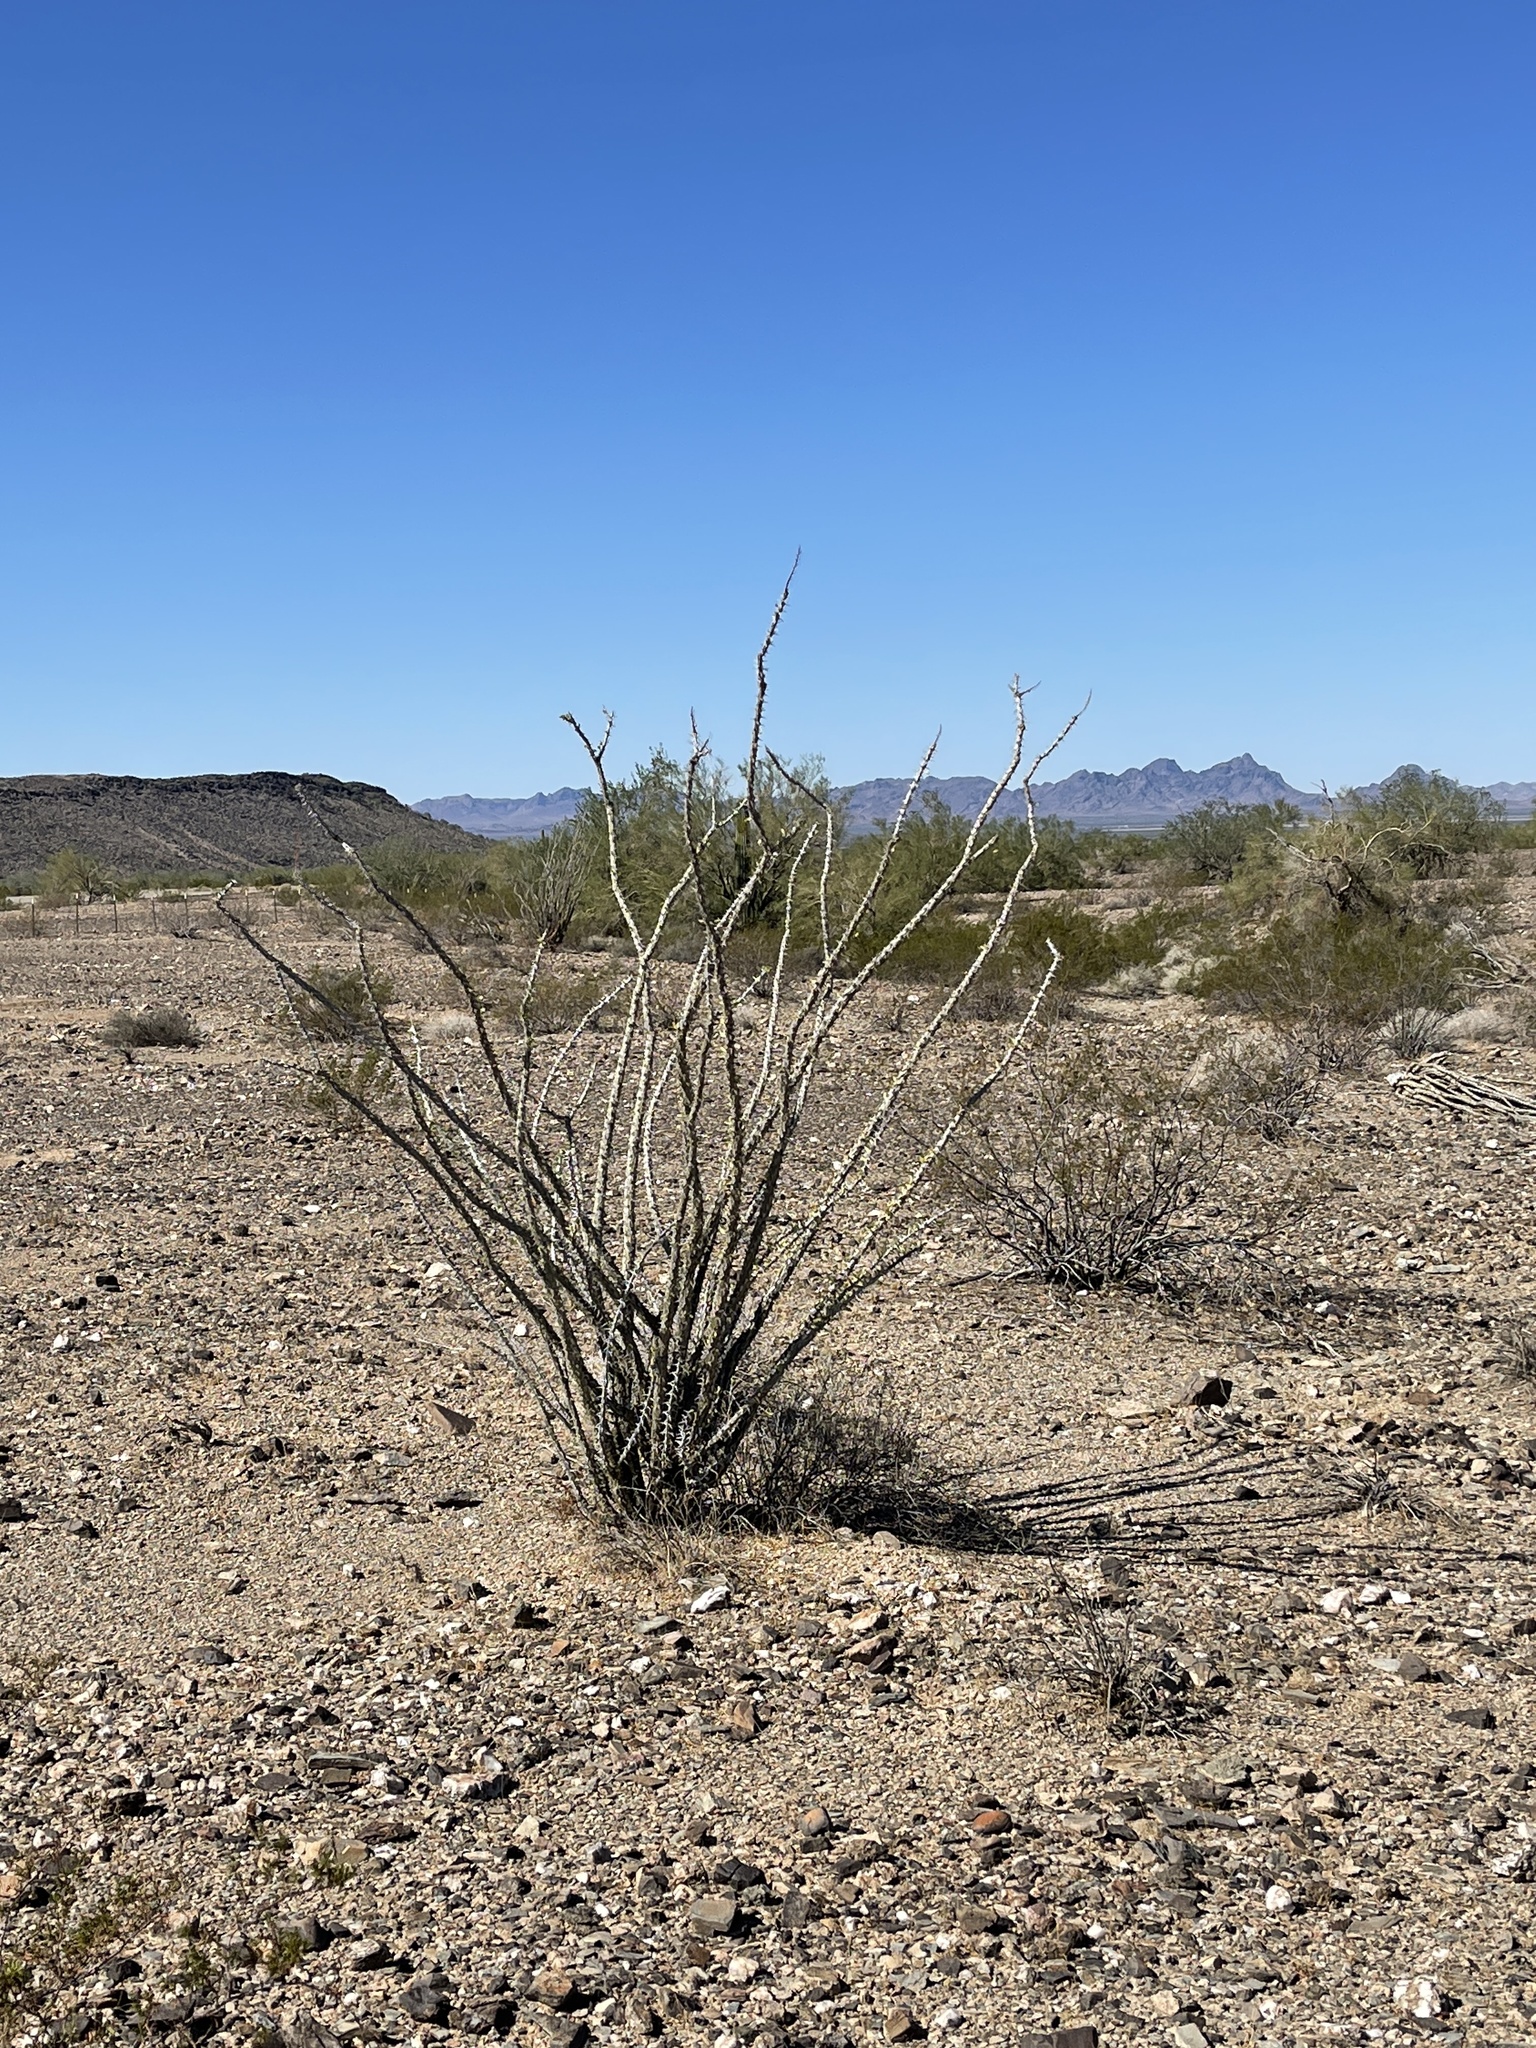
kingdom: Plantae
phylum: Tracheophyta
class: Magnoliopsida
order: Ericales
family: Fouquieriaceae
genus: Fouquieria
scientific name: Fouquieria splendens
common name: Vine-cactus
